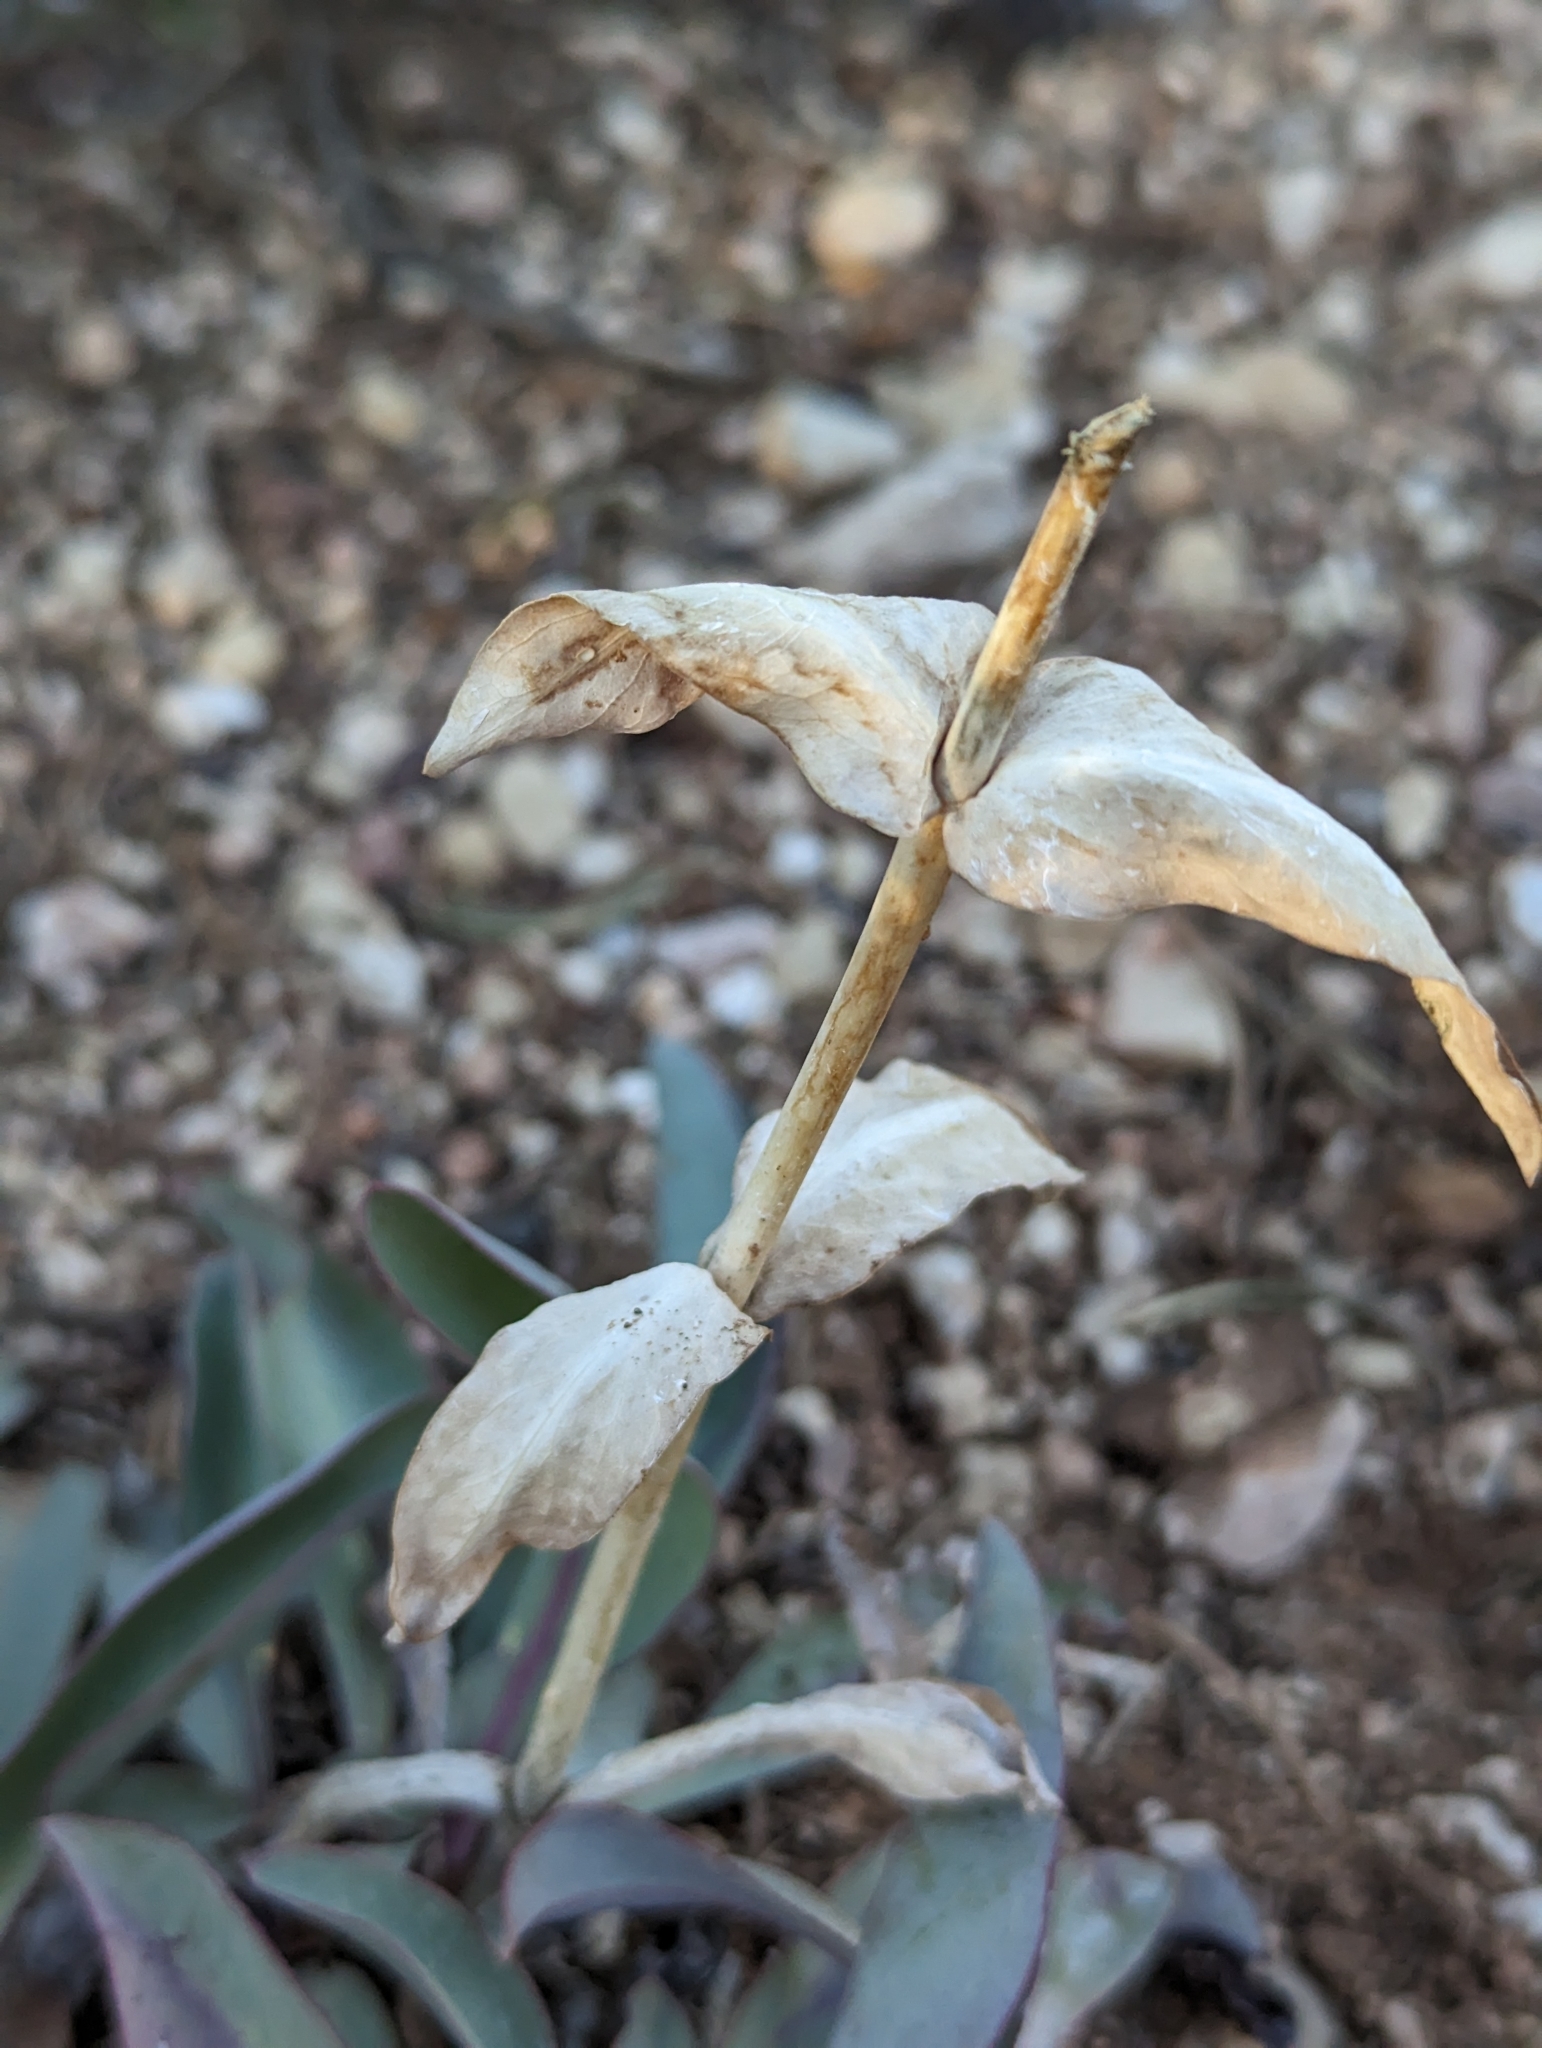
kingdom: Plantae
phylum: Tracheophyta
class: Magnoliopsida
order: Lamiales
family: Plantaginaceae
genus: Penstemon
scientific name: Penstemon pachyphyllus
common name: Thick-leaf penstemon
